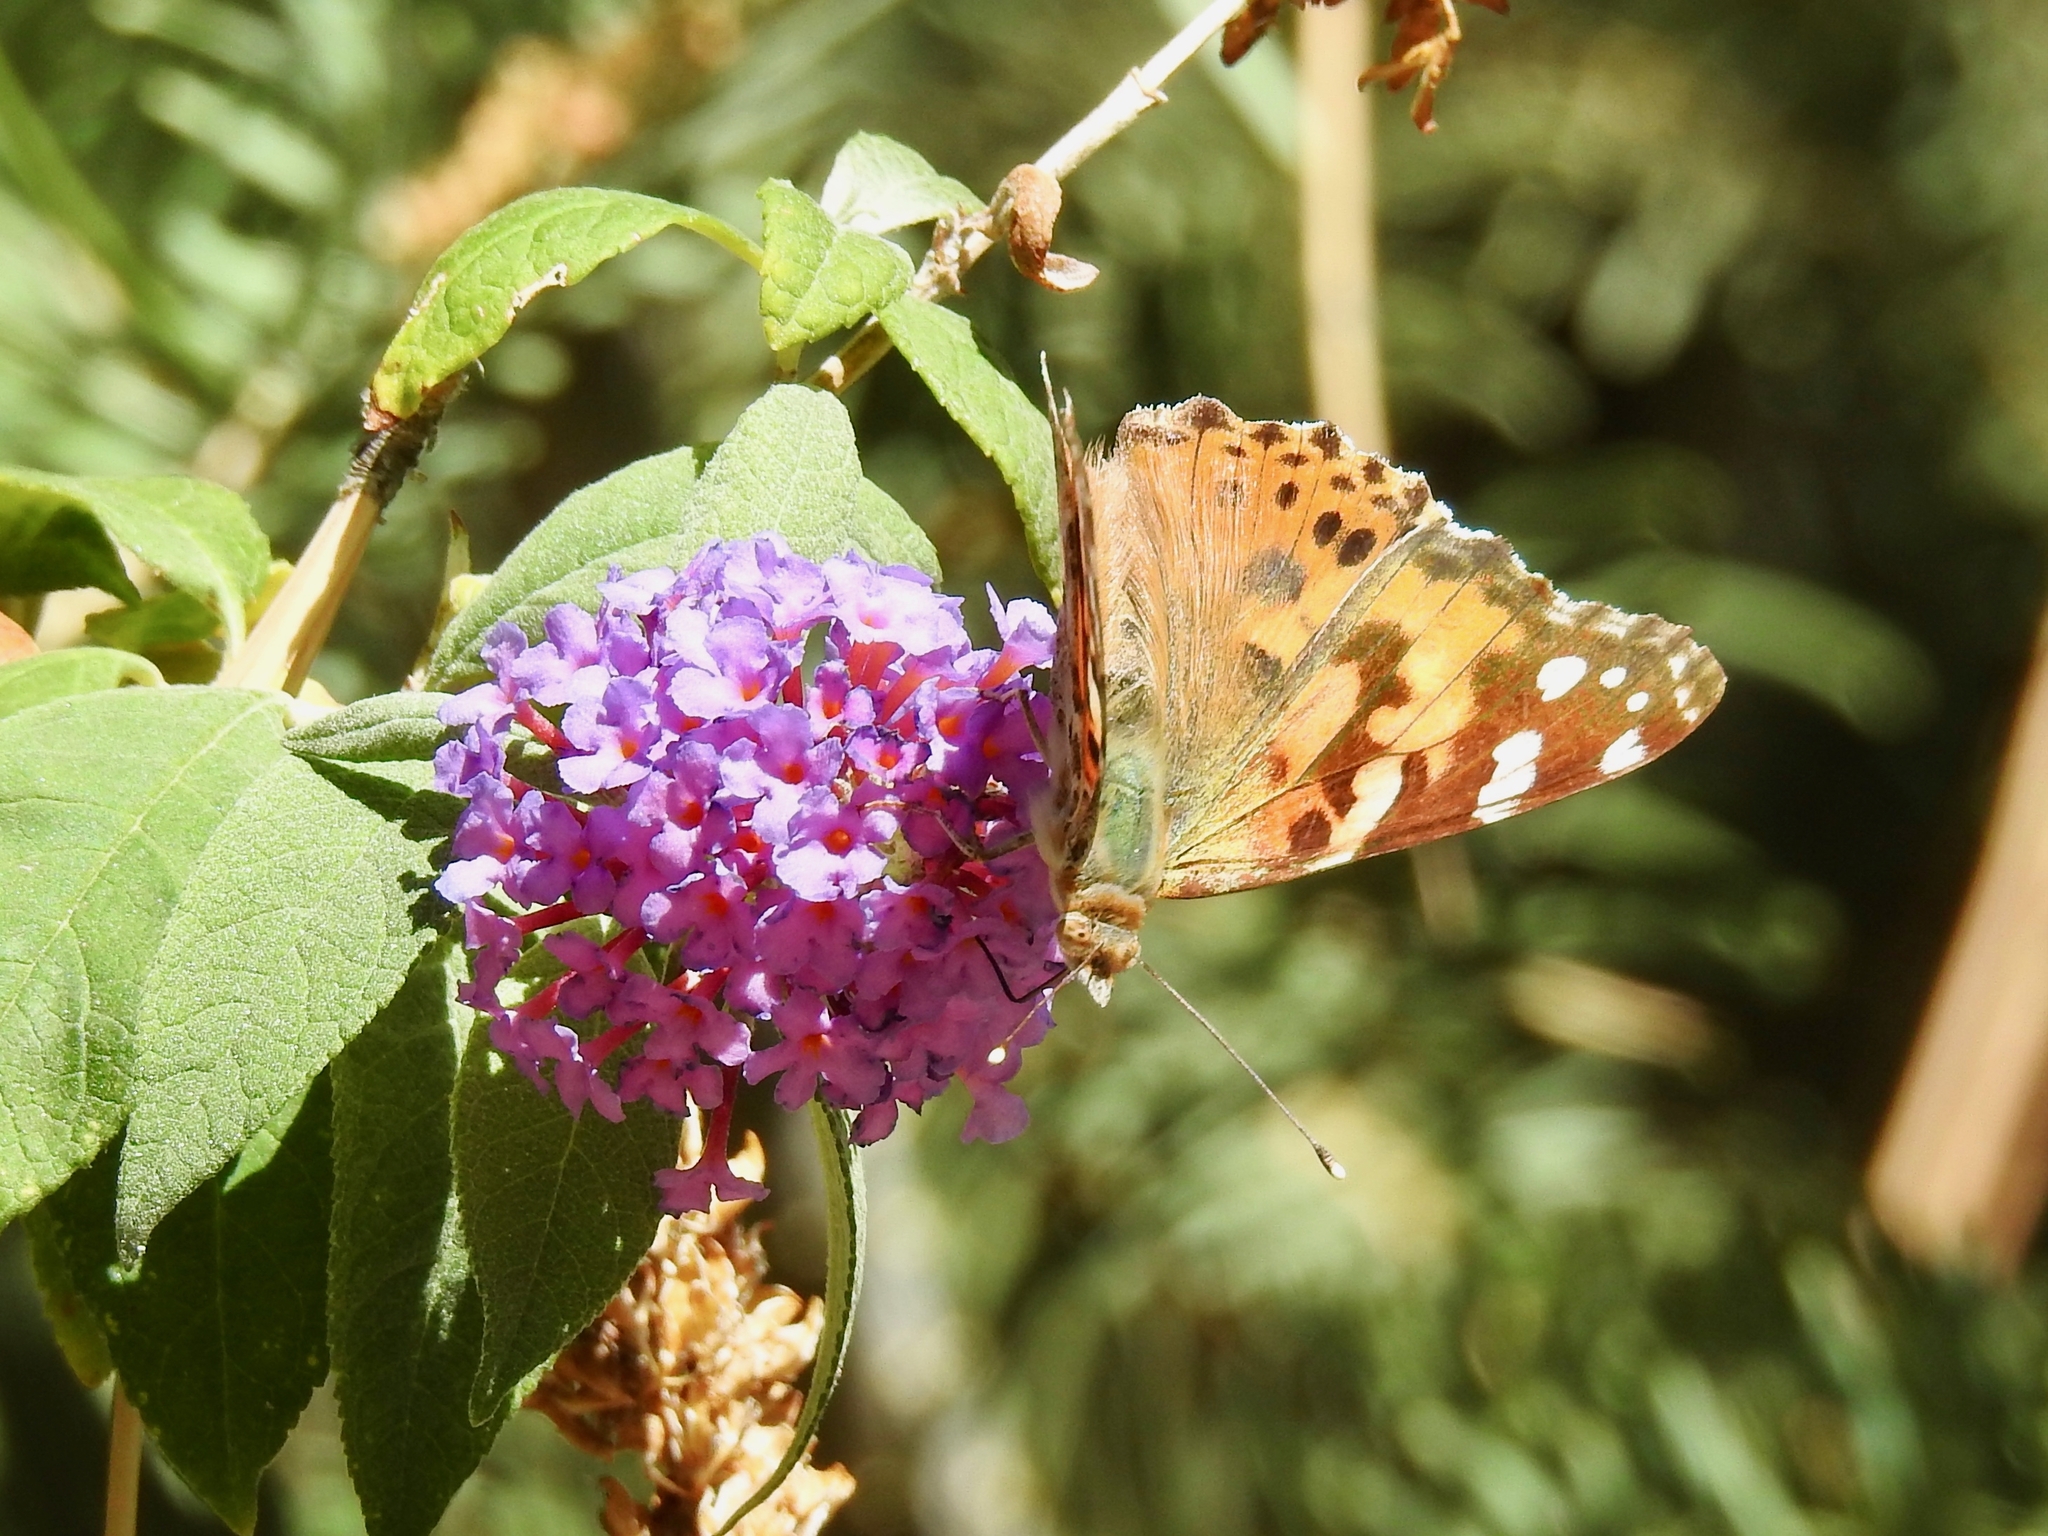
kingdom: Animalia
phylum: Arthropoda
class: Insecta
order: Lepidoptera
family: Nymphalidae
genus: Vanessa
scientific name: Vanessa cardui
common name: Painted lady
